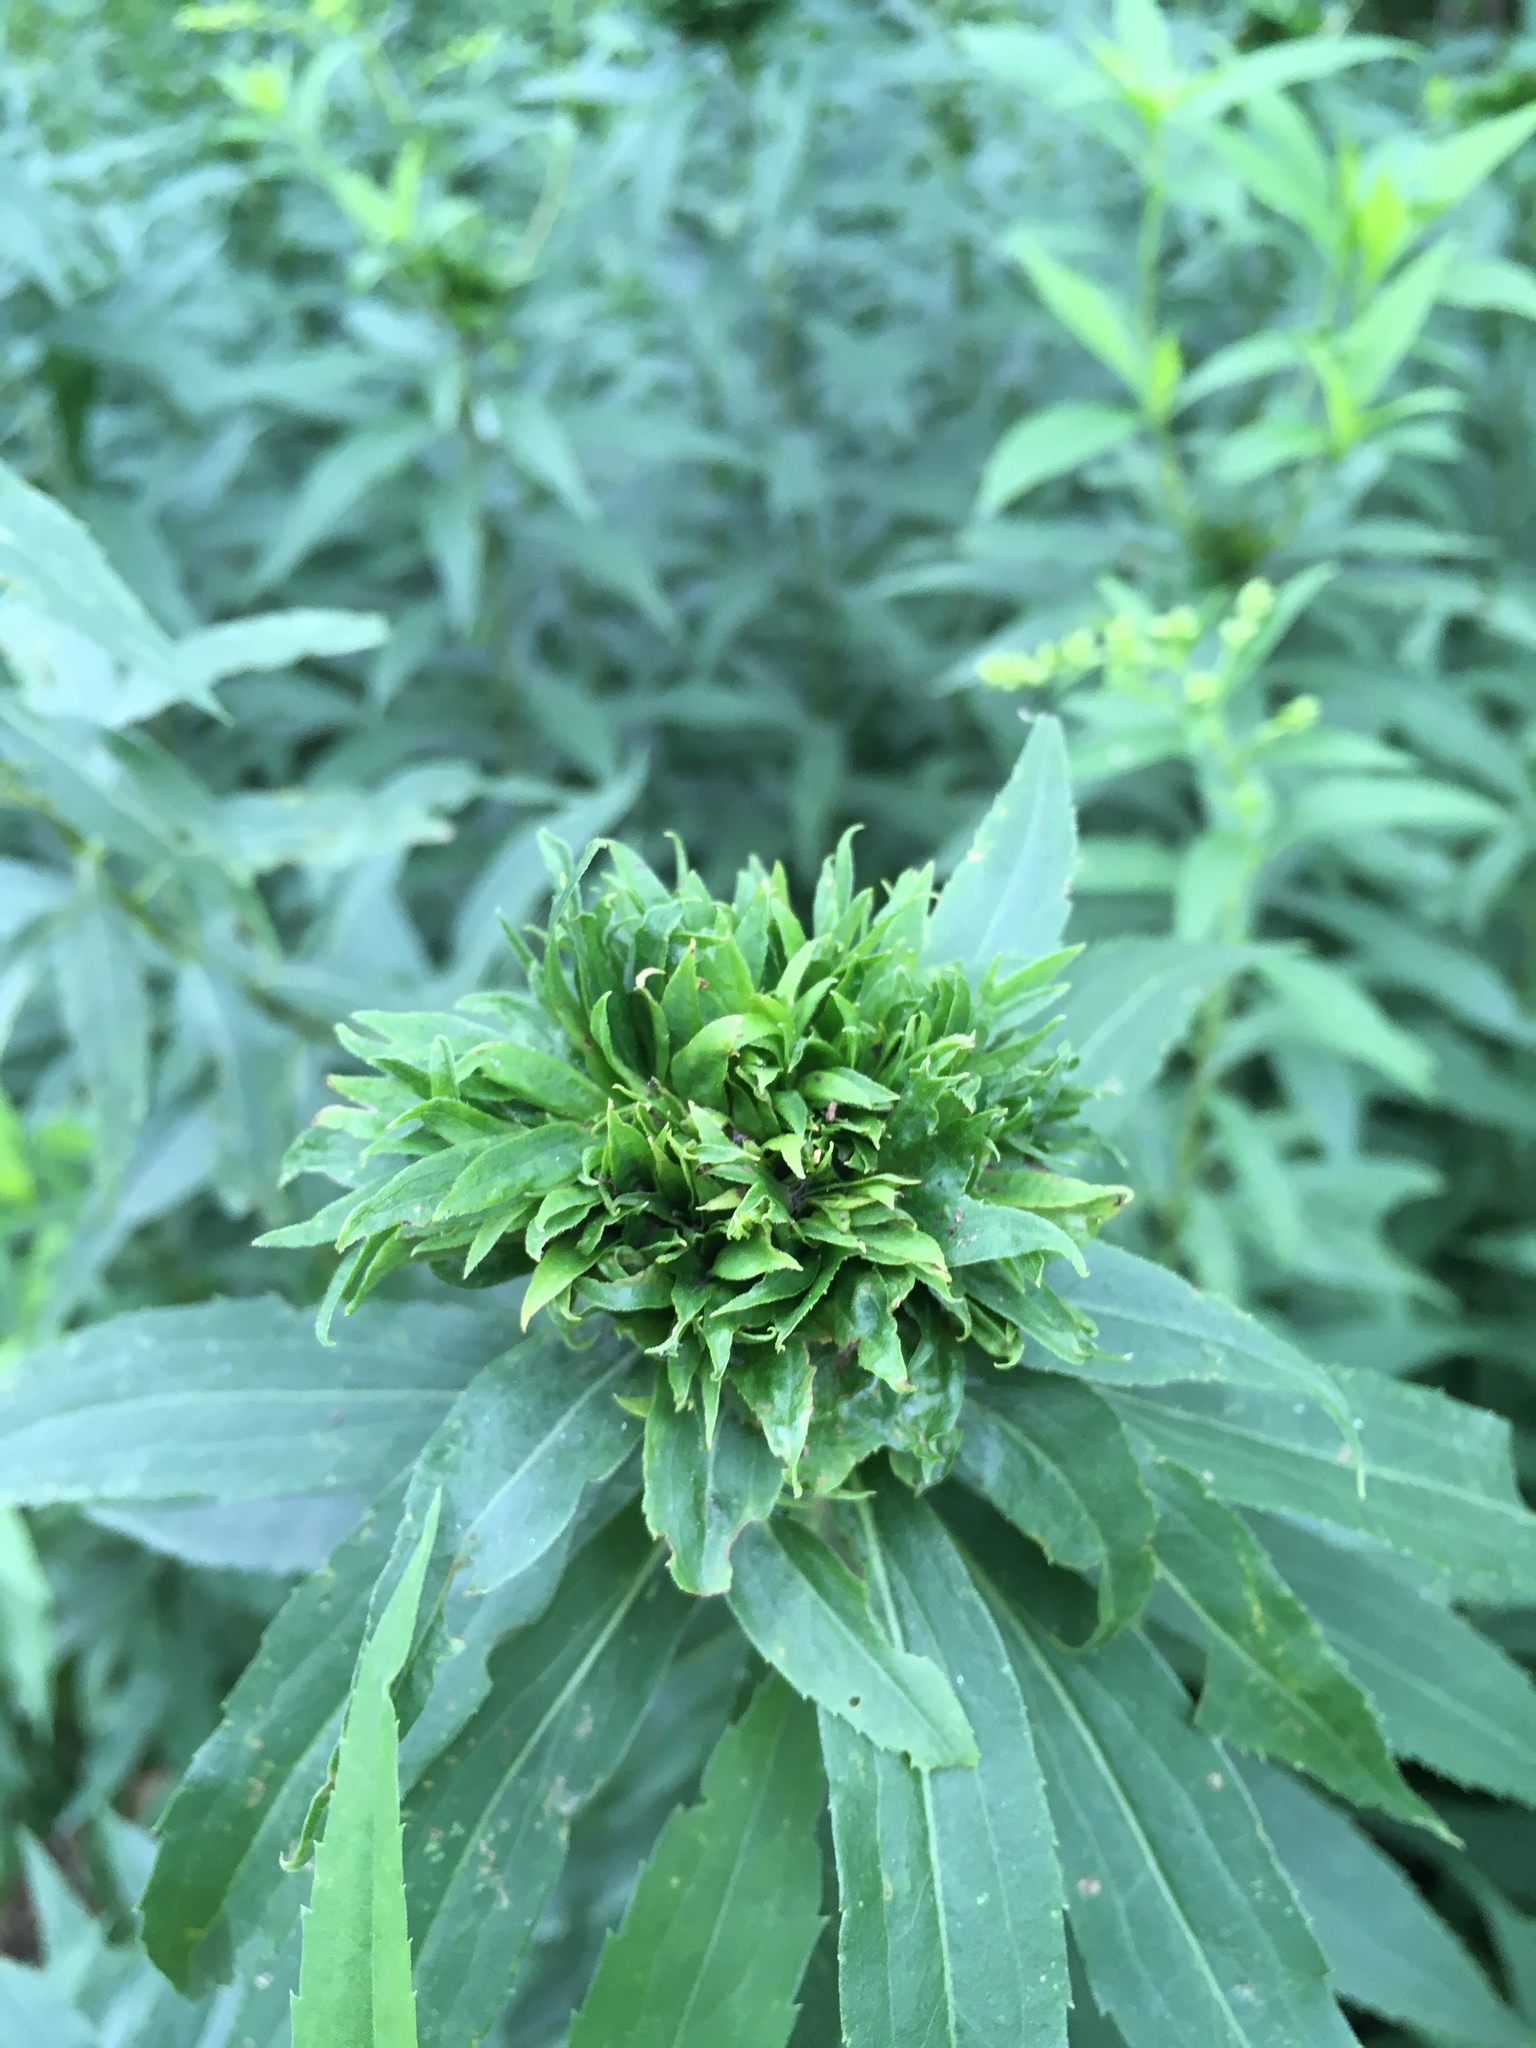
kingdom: Animalia
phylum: Arthropoda
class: Insecta
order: Diptera
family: Cecidomyiidae
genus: Rhopalomyia
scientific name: Rhopalomyia capitata
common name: Giant goldenrod bunch gall midge
